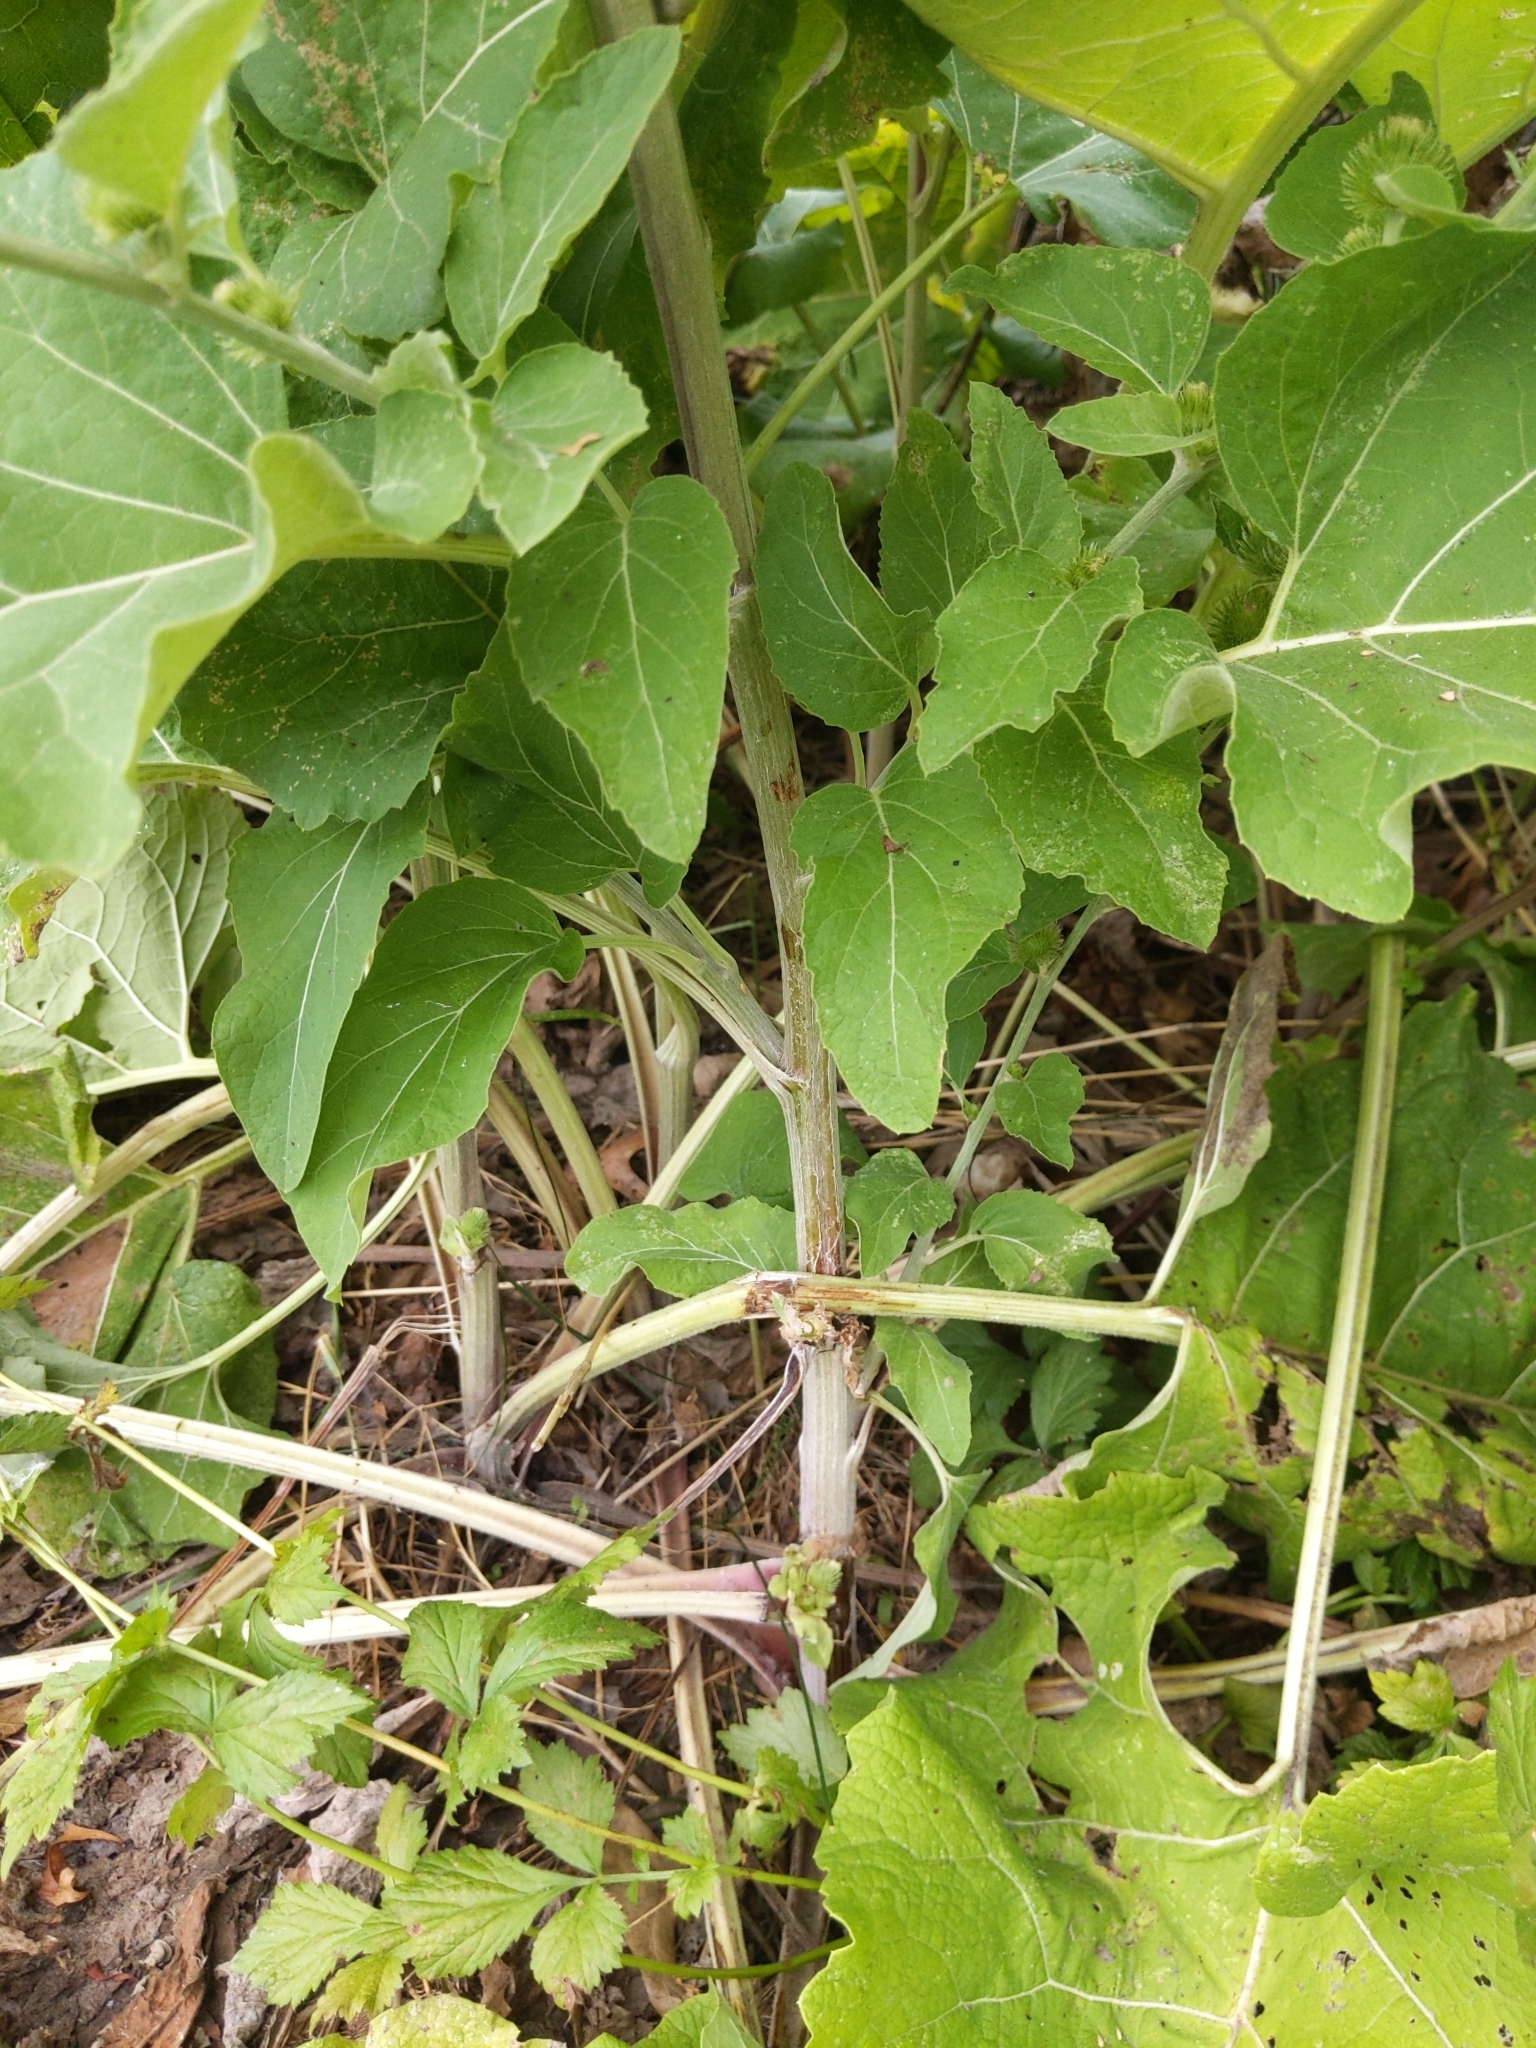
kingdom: Plantae
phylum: Tracheophyta
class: Magnoliopsida
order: Asterales
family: Asteraceae
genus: Arctium
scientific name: Arctium lappa
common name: Greater burdock
